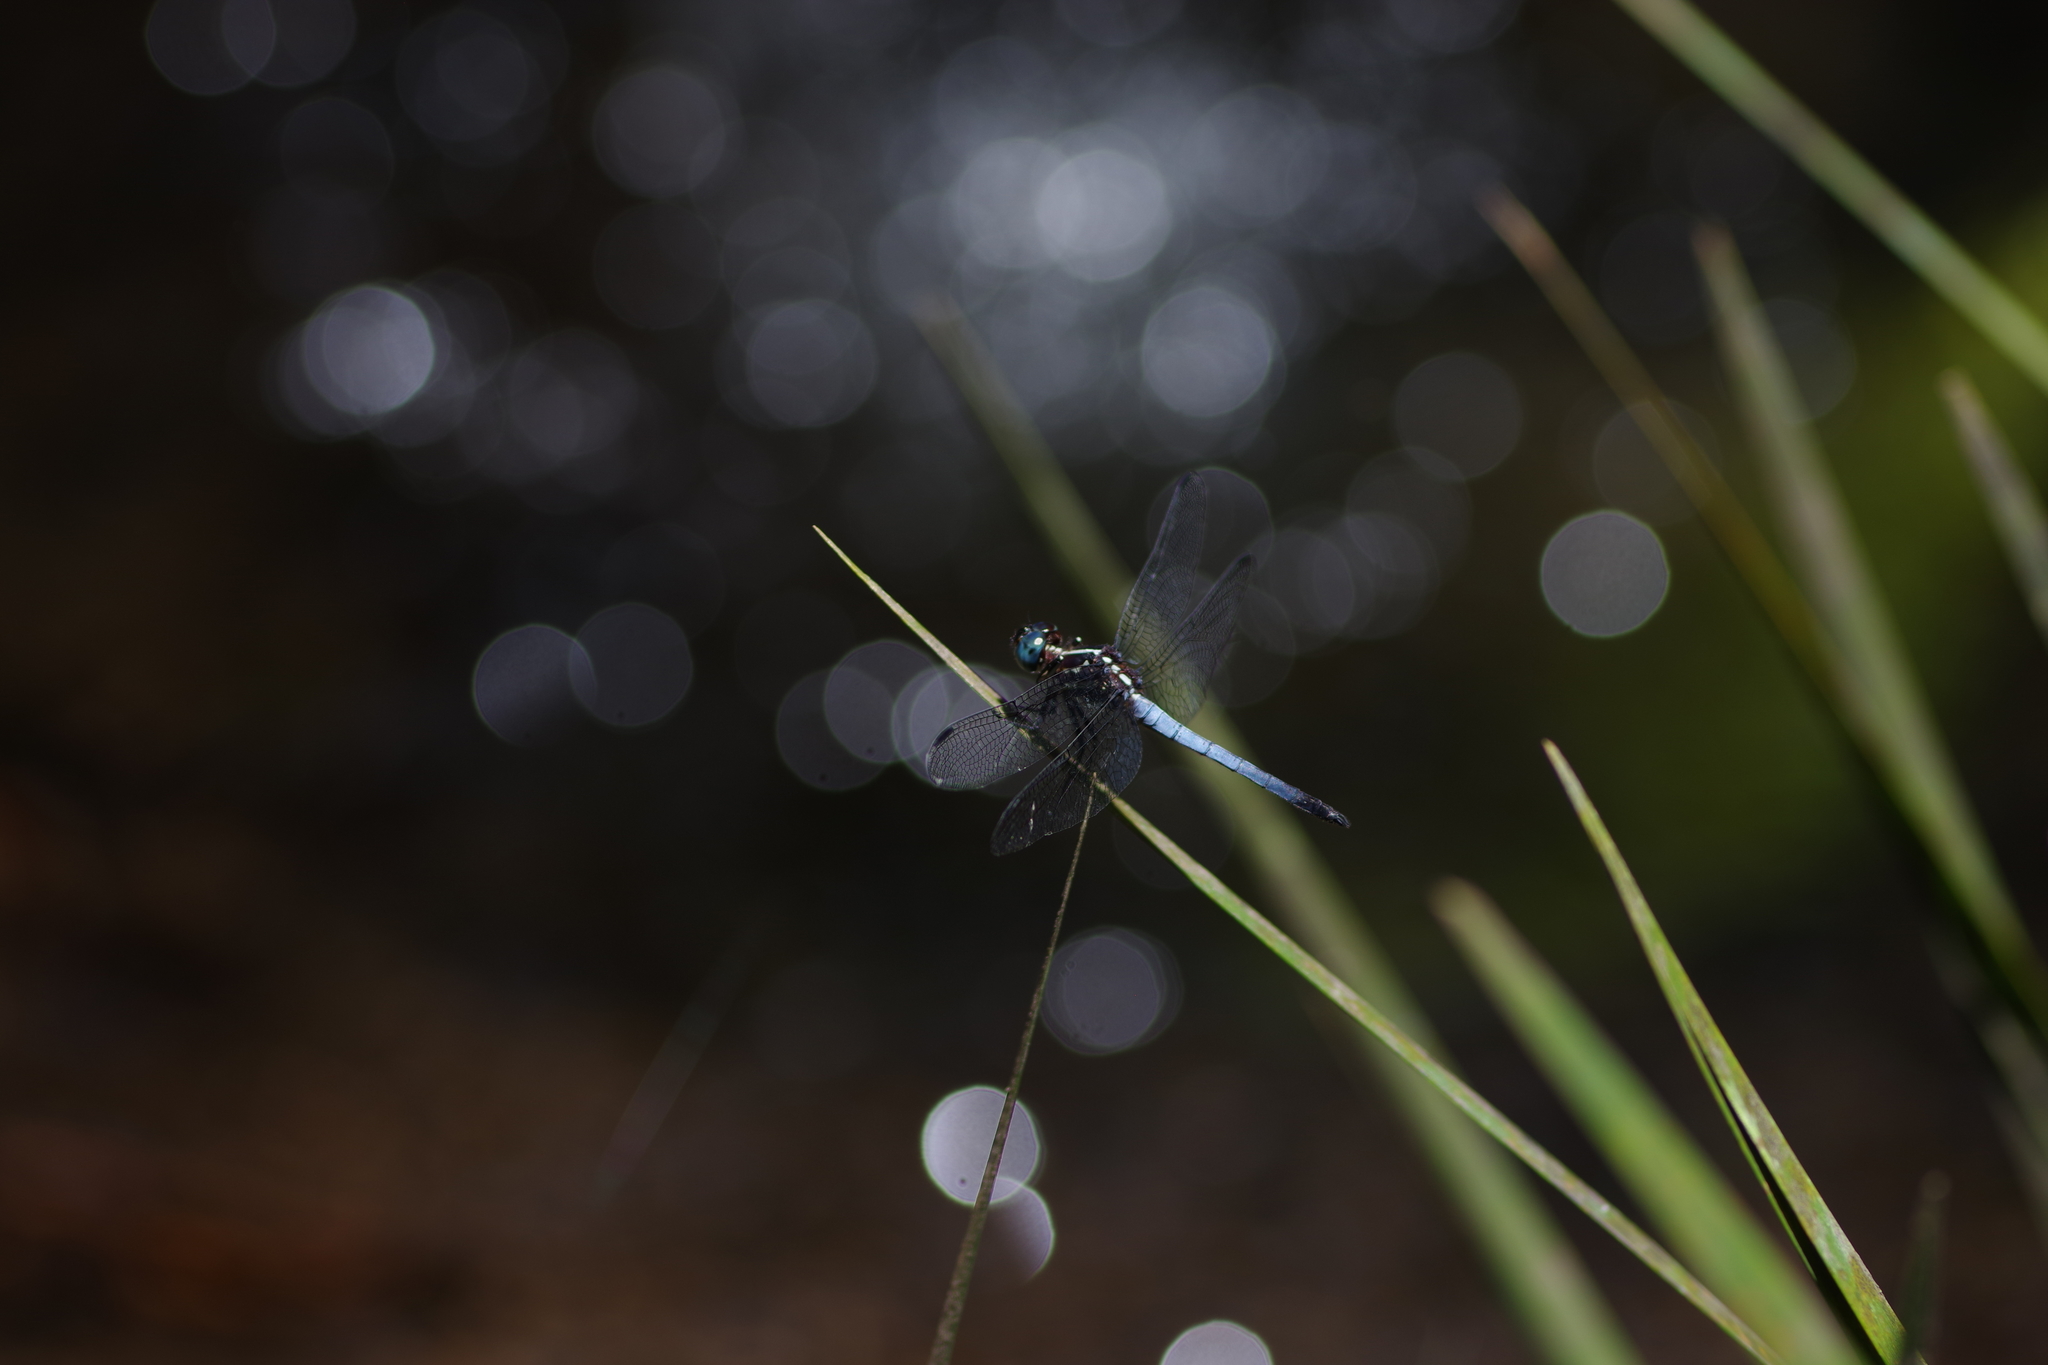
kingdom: Animalia
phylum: Arthropoda
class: Insecta
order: Odonata
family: Libellulidae
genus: Cannaphila
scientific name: Cannaphila vibex
